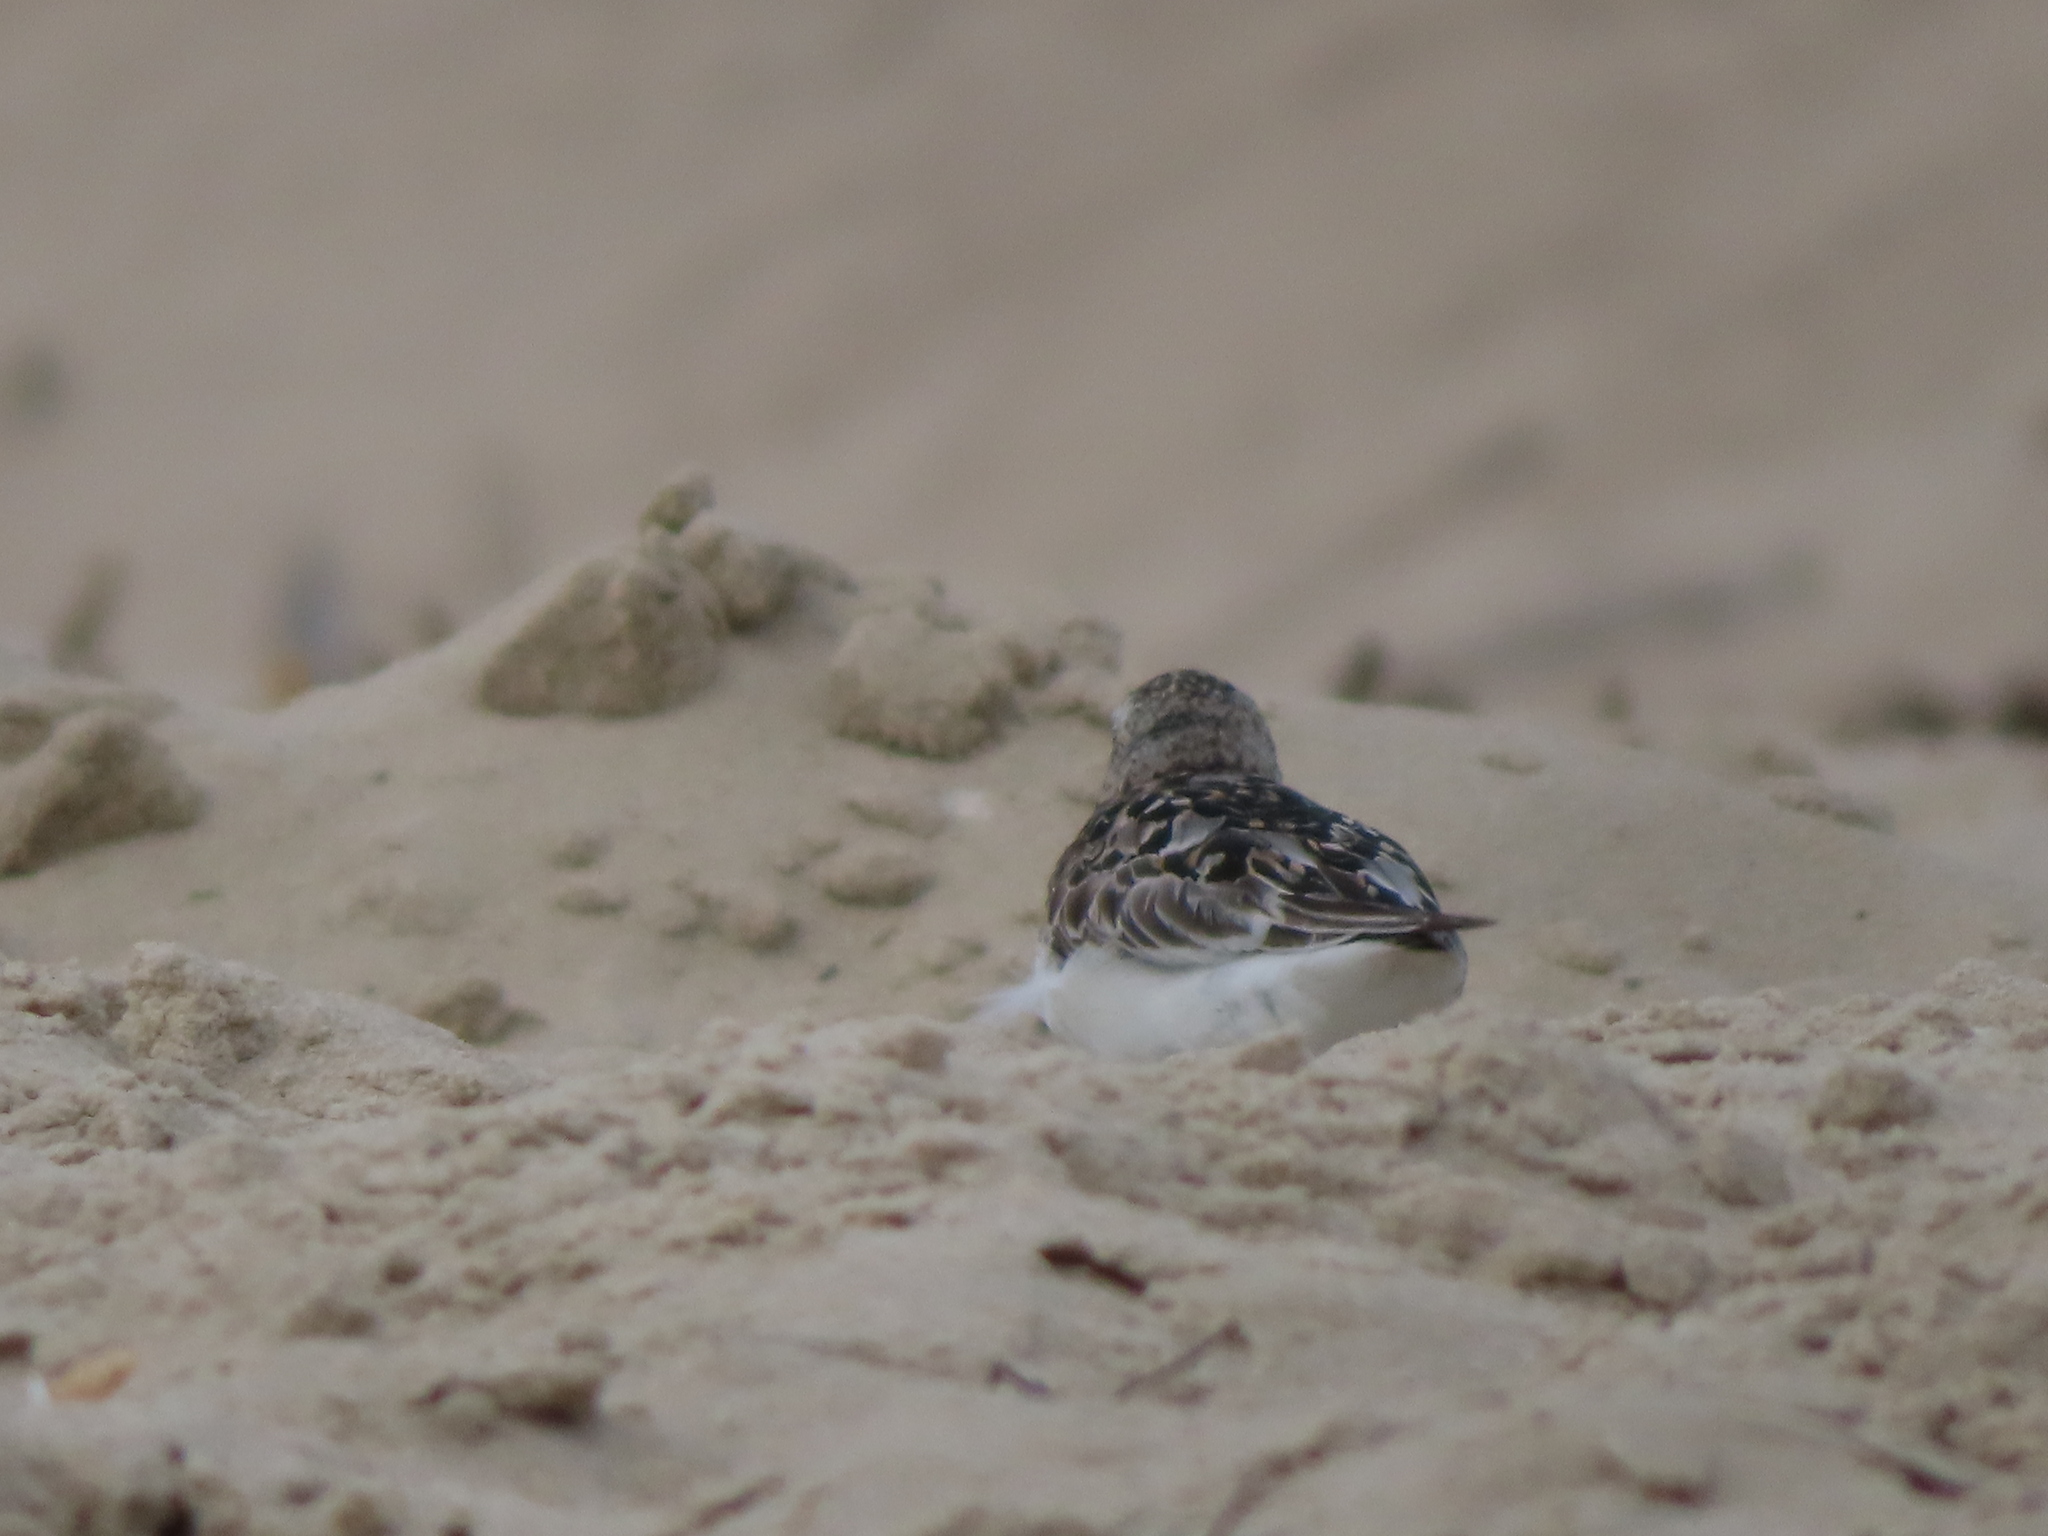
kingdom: Animalia
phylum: Chordata
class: Aves
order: Charadriiformes
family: Scolopacidae
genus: Calidris
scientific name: Calidris alba
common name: Sanderling
